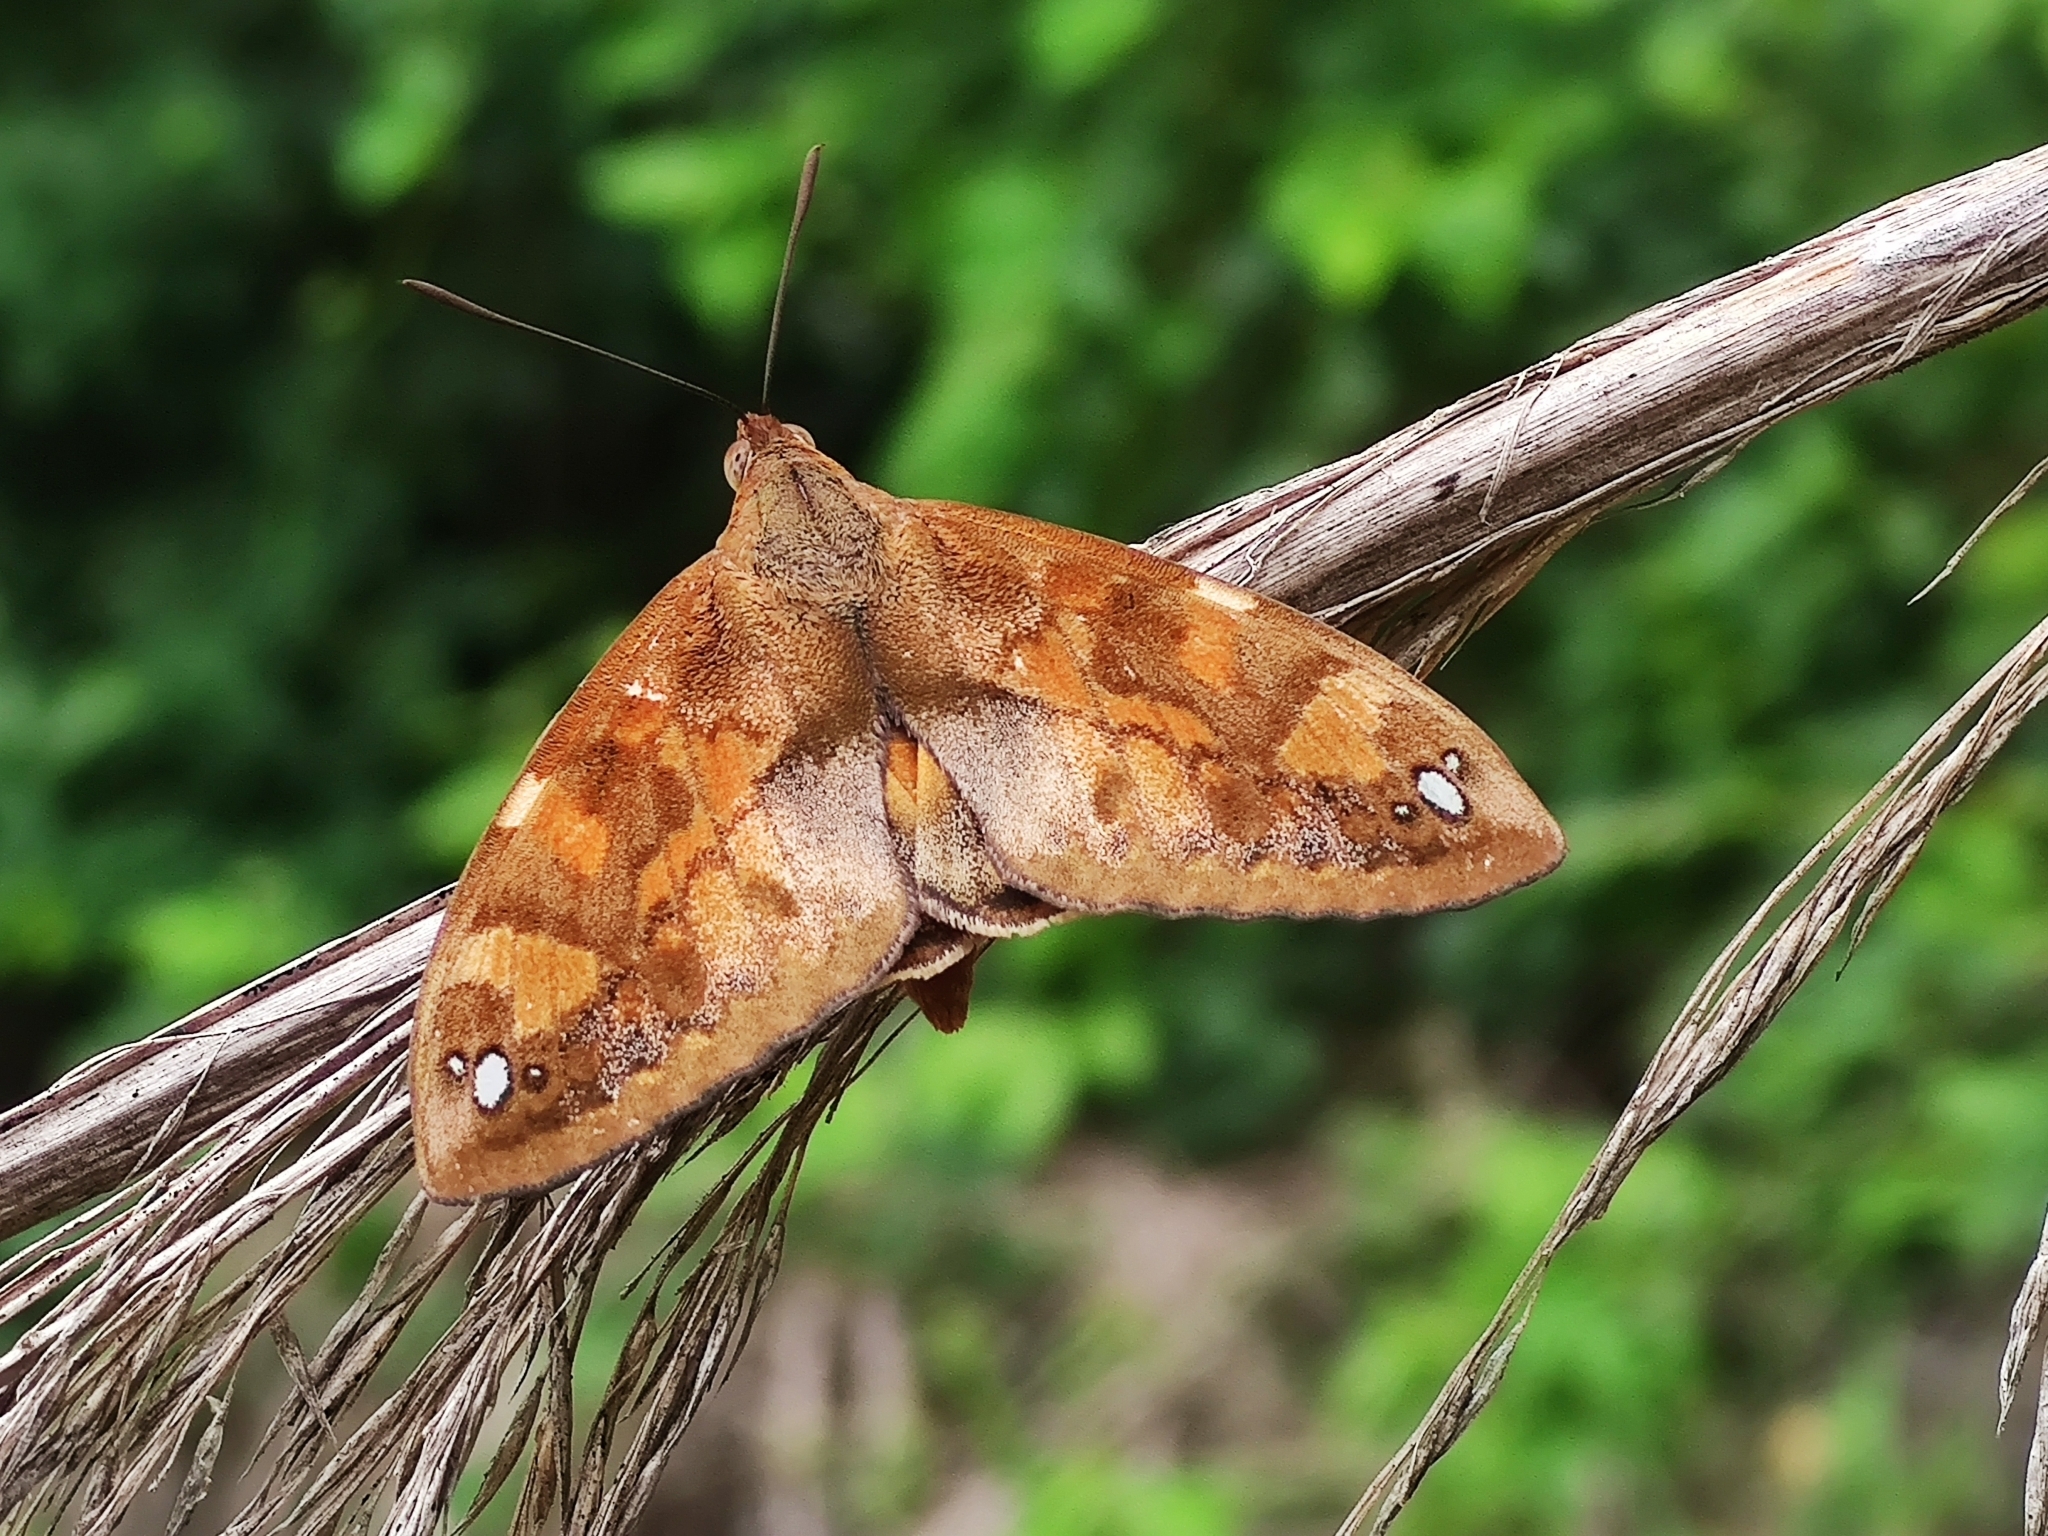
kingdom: Animalia
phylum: Arthropoda
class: Insecta
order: Lepidoptera
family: Castniidae
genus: Athis
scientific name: Athis inca
